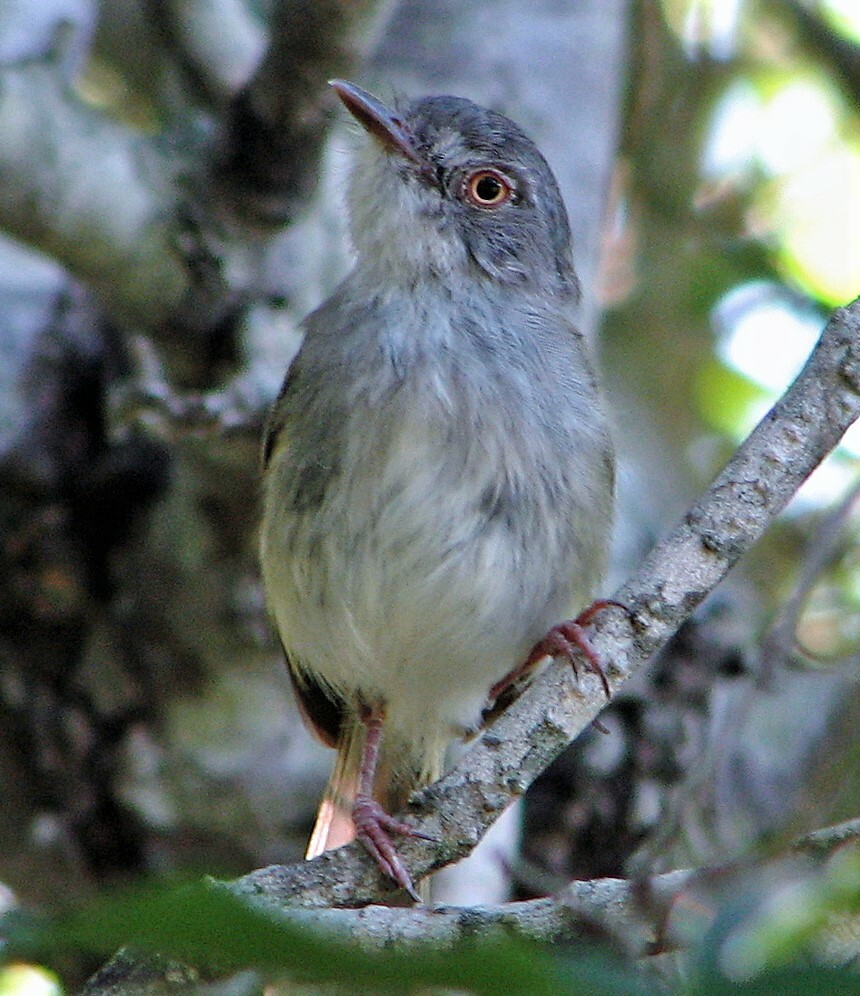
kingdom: Animalia
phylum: Chordata
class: Aves
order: Passeriformes
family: Tyrannidae
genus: Hemitriccus
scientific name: Hemitriccus margaritaceiventer
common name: Pearly-vented tody-tyrant
